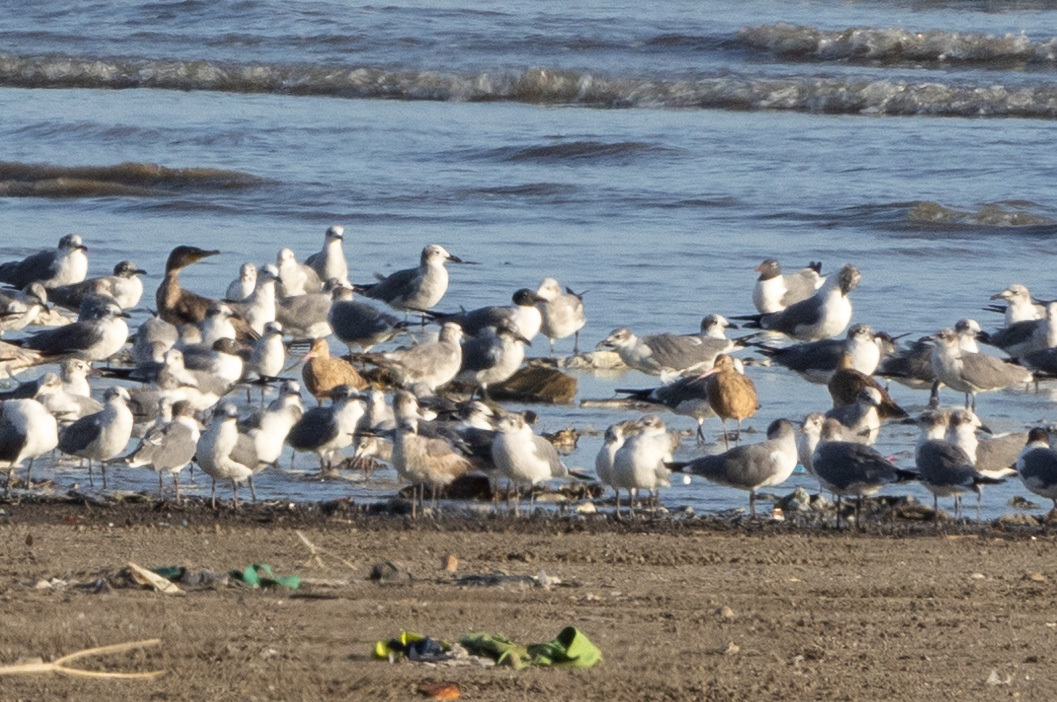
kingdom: Animalia
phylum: Chordata
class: Aves
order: Charadriiformes
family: Laridae
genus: Leucophaeus
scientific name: Leucophaeus atricilla
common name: Laughing gull
